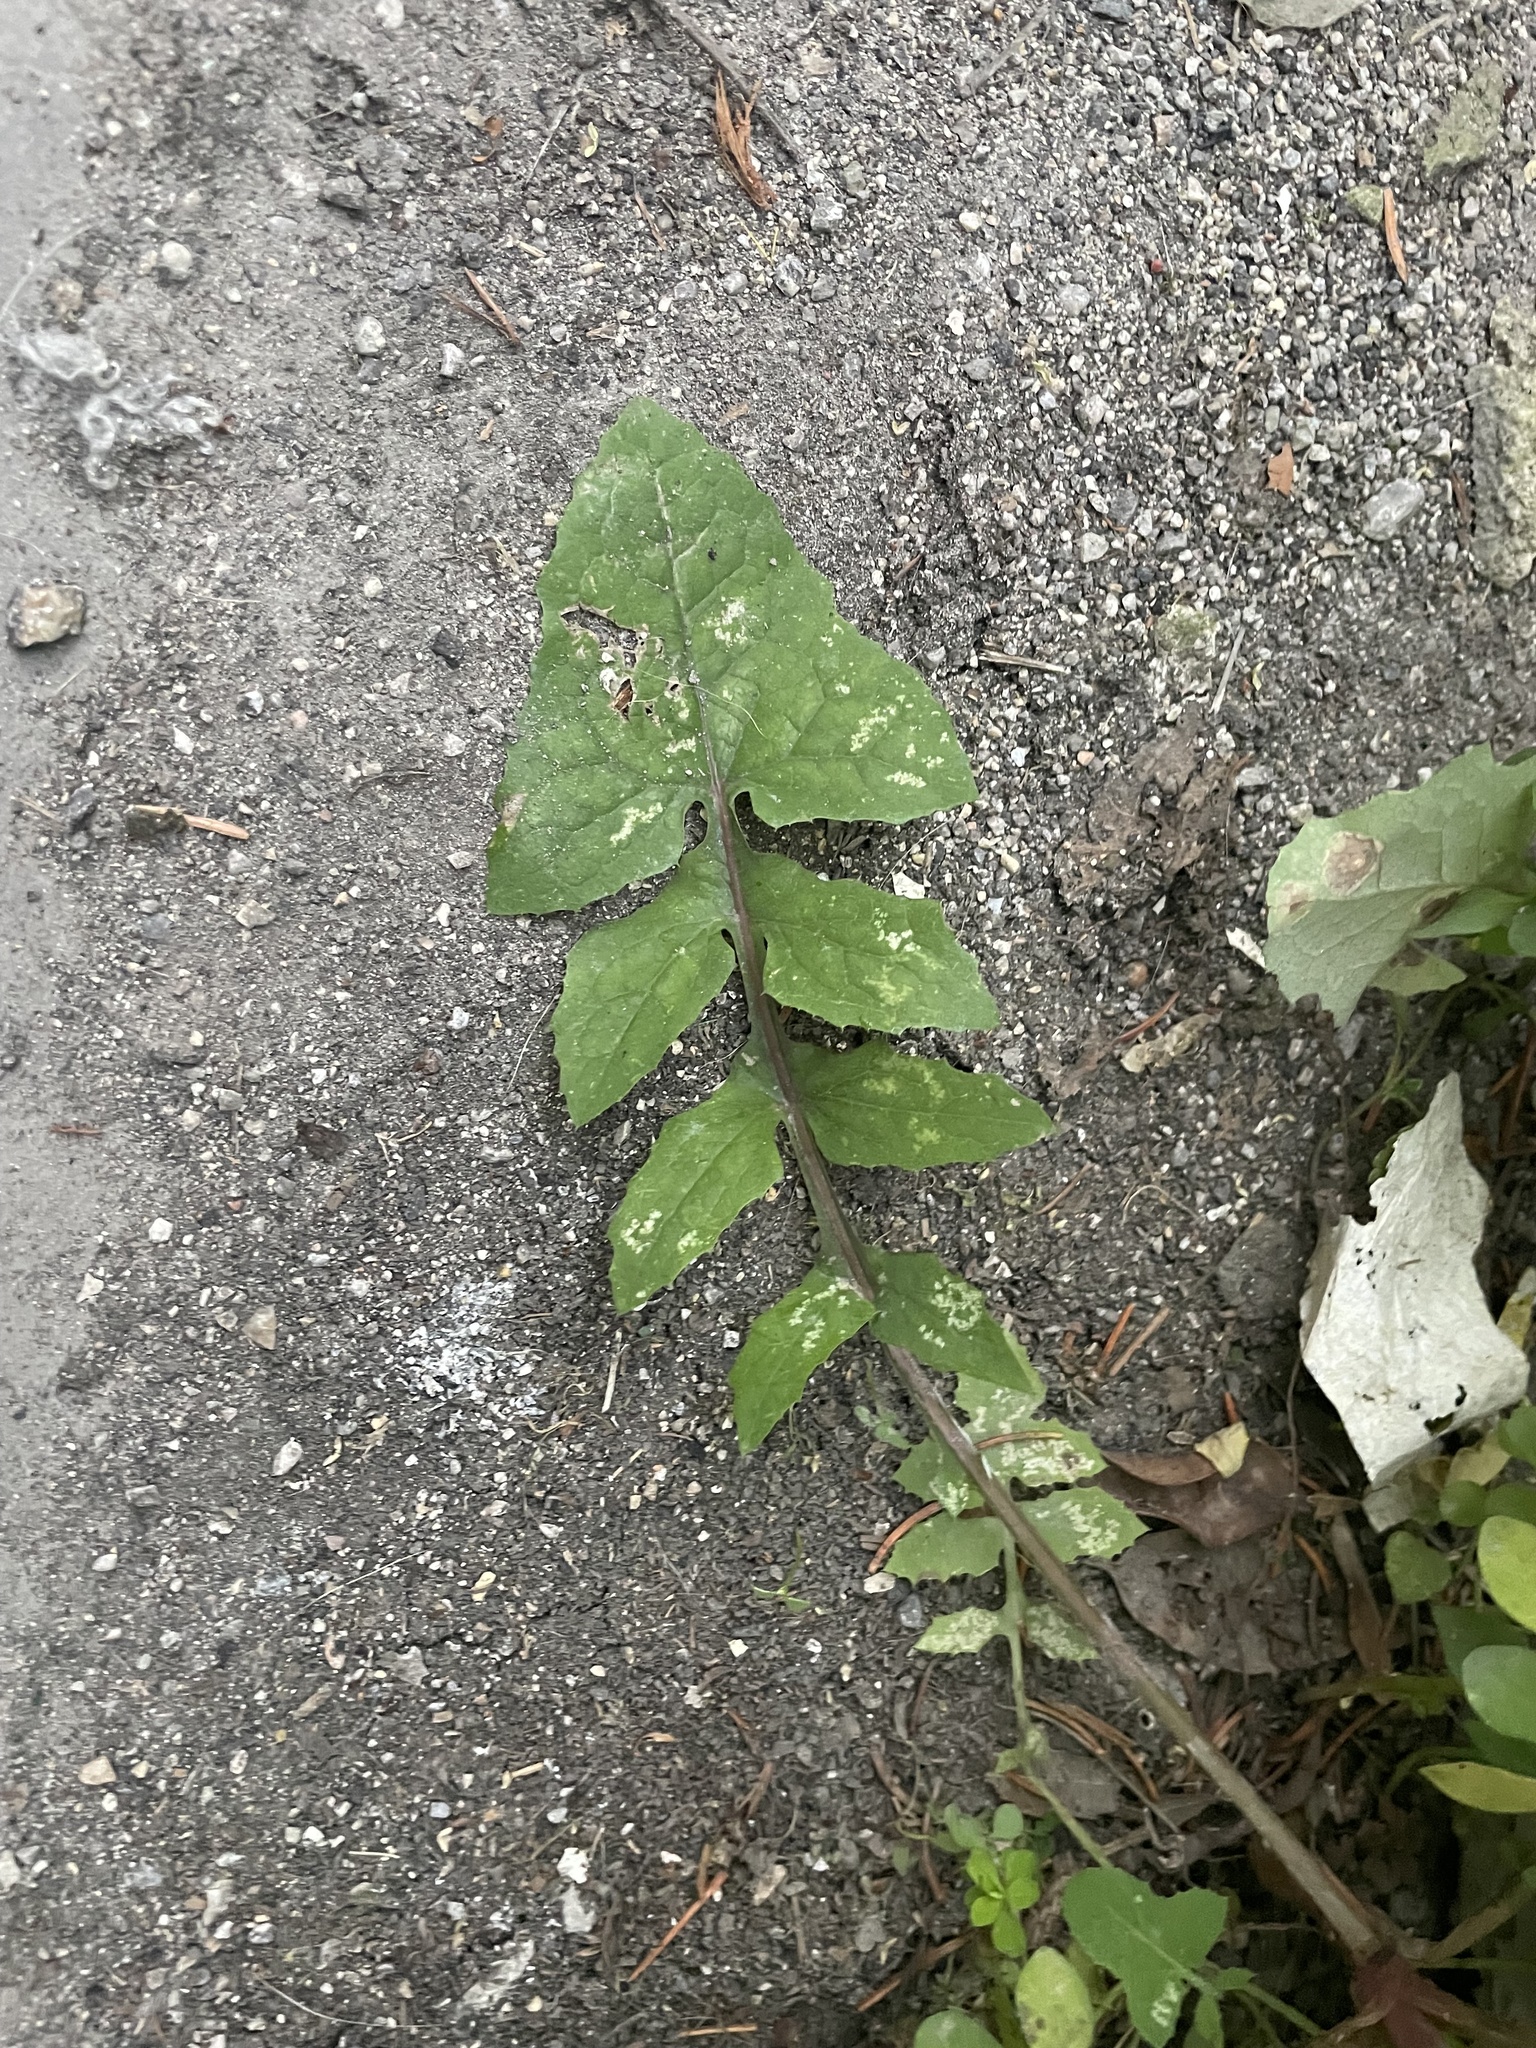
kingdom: Plantae
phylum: Tracheophyta
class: Magnoliopsida
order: Asterales
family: Asteraceae
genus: Sonchus
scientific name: Sonchus oleraceus
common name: Common sowthistle
